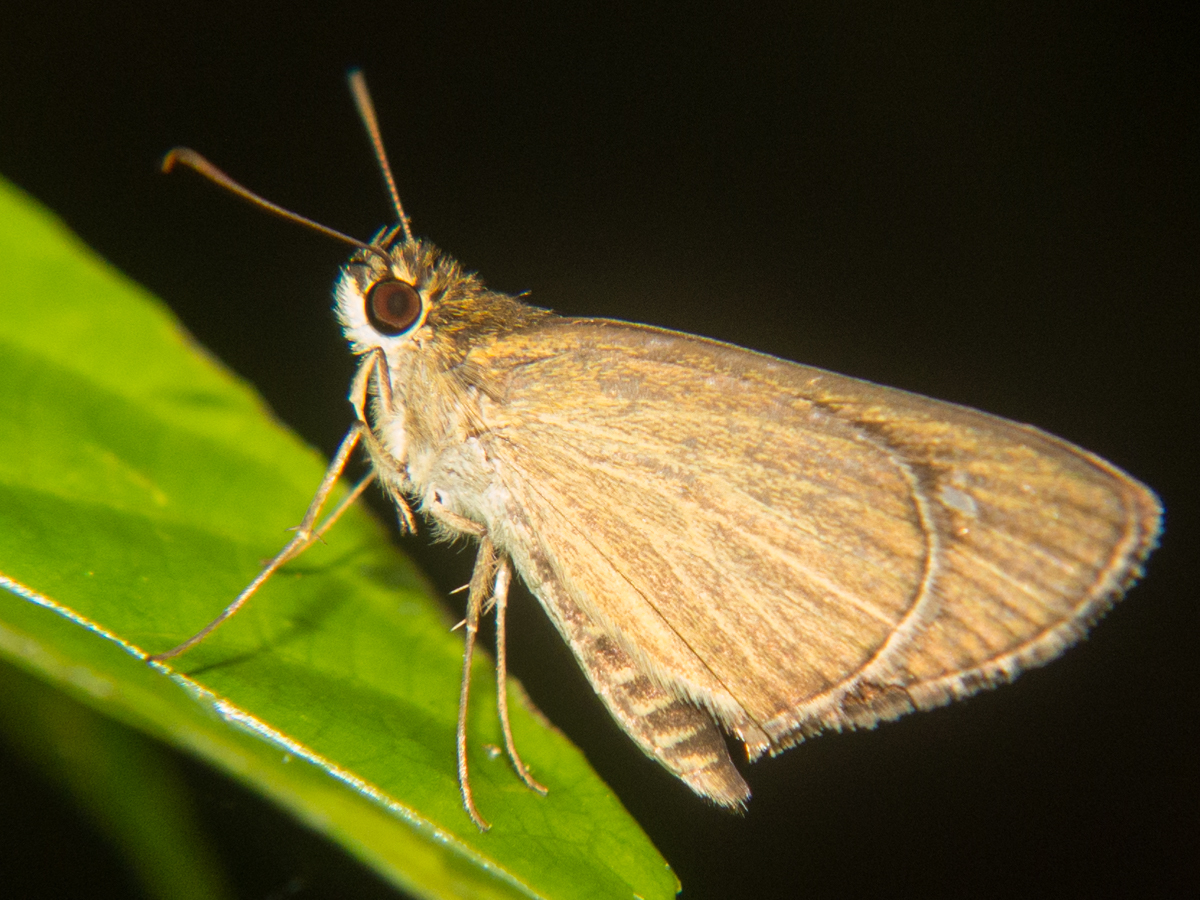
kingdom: Animalia
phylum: Arthropoda
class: Insecta
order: Lepidoptera
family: Hesperiidae
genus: Suada
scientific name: Suada swerga
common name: Grass bob
